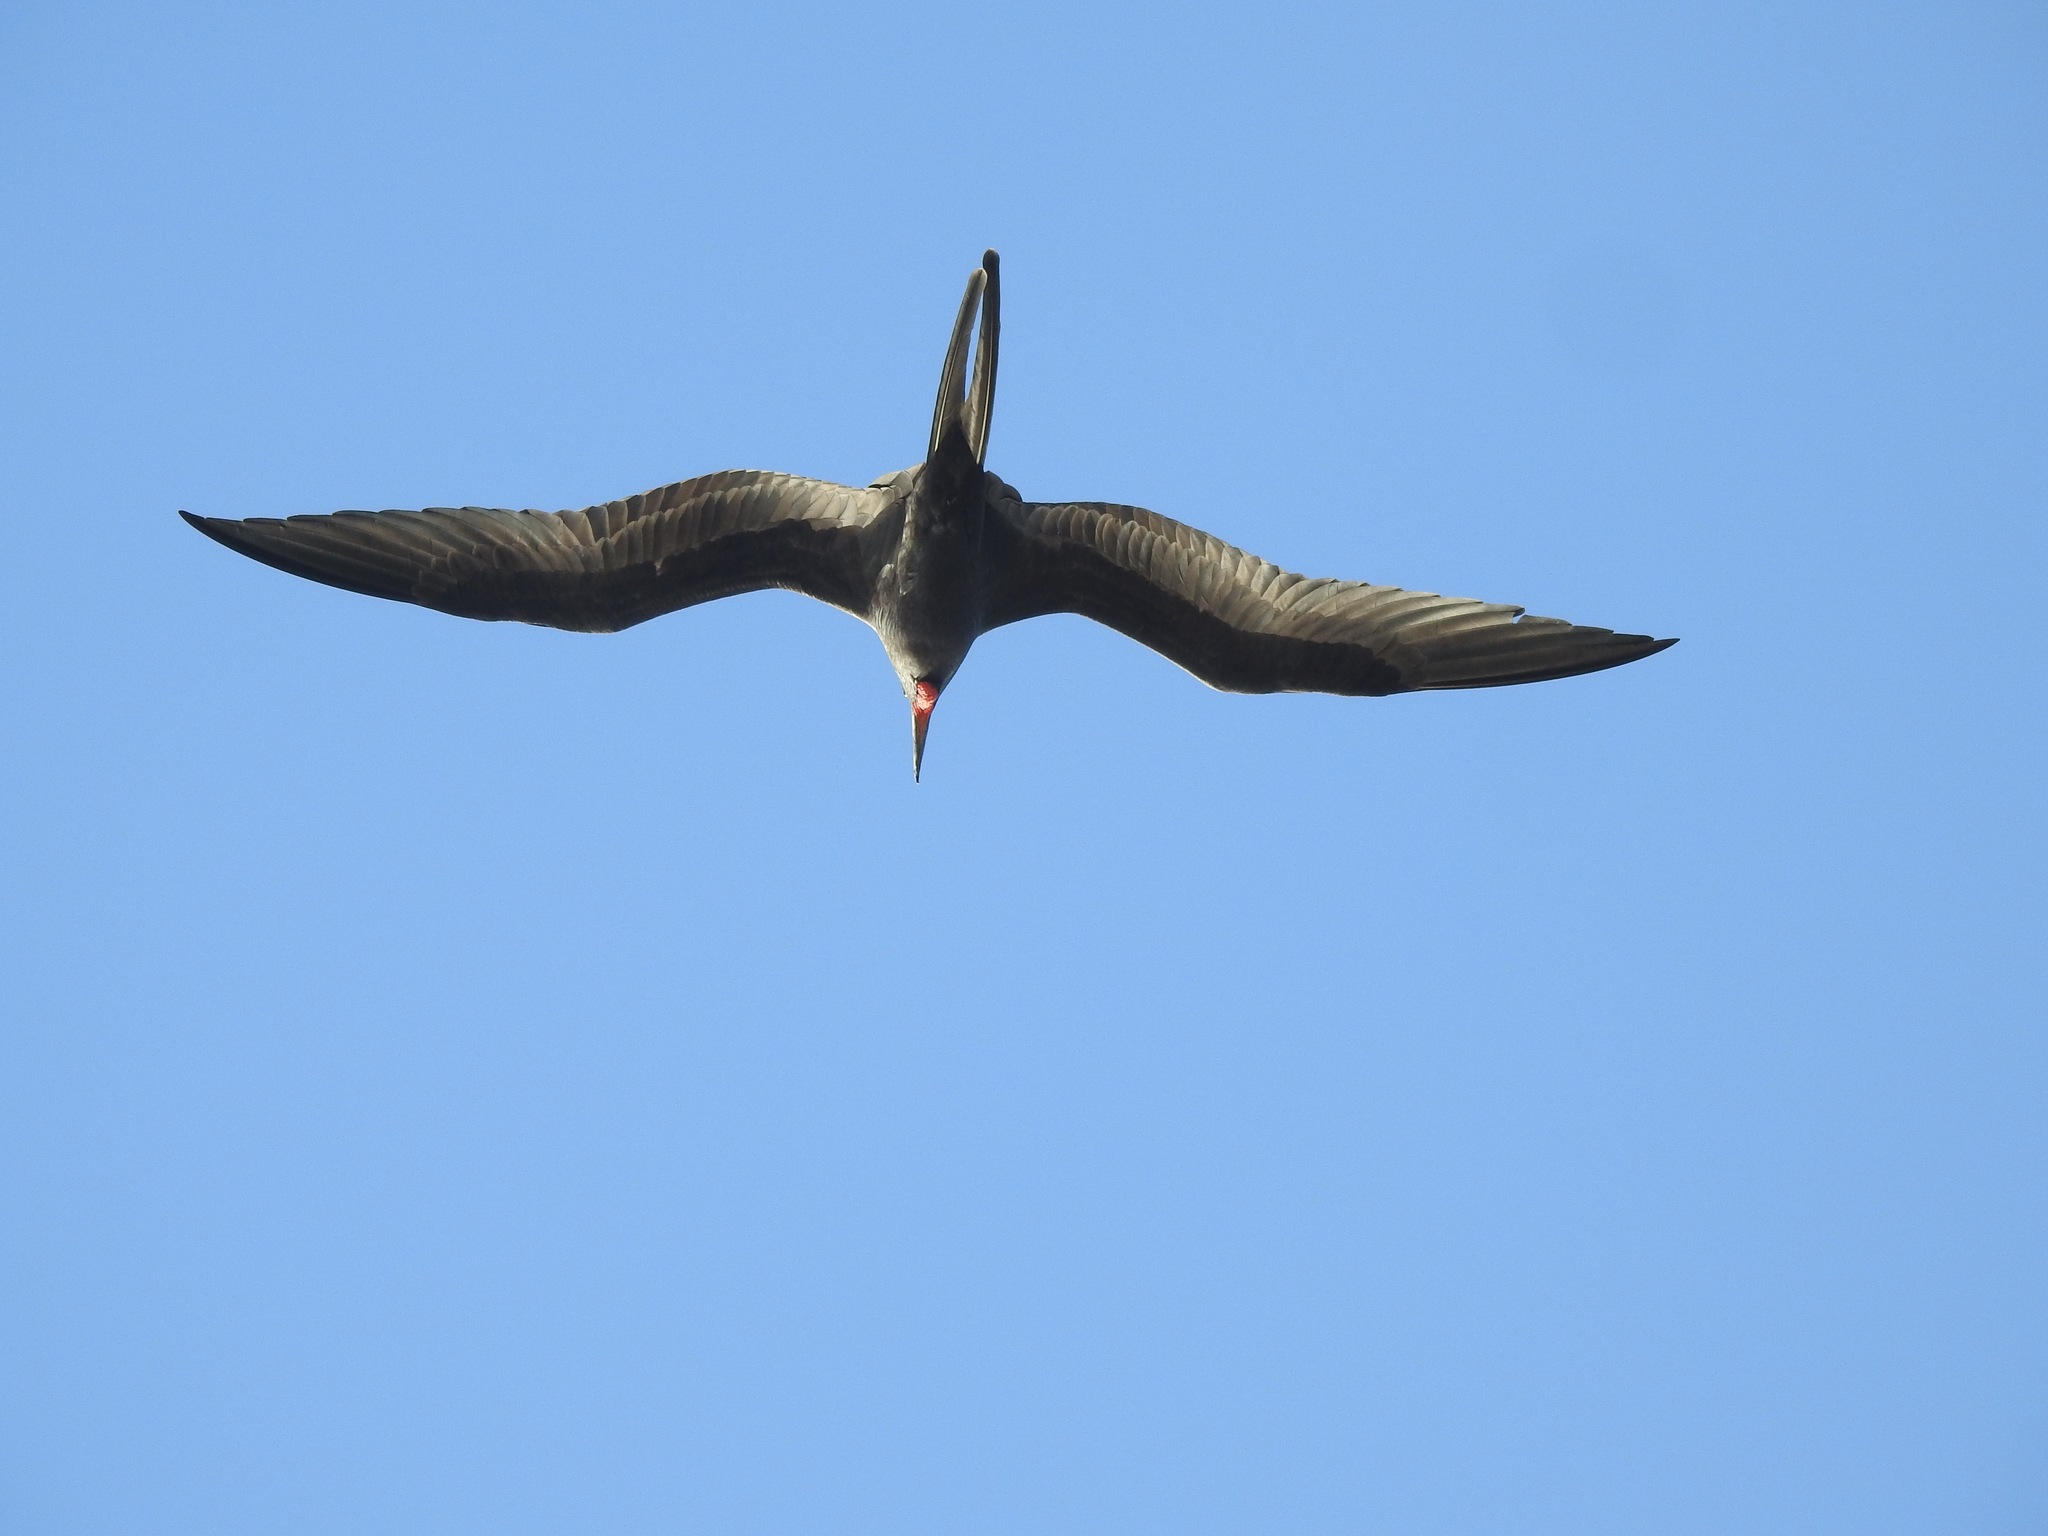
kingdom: Animalia
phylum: Chordata
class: Aves
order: Suliformes
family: Fregatidae
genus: Fregata
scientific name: Fregata magnificens
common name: Magnificent frigatebird
